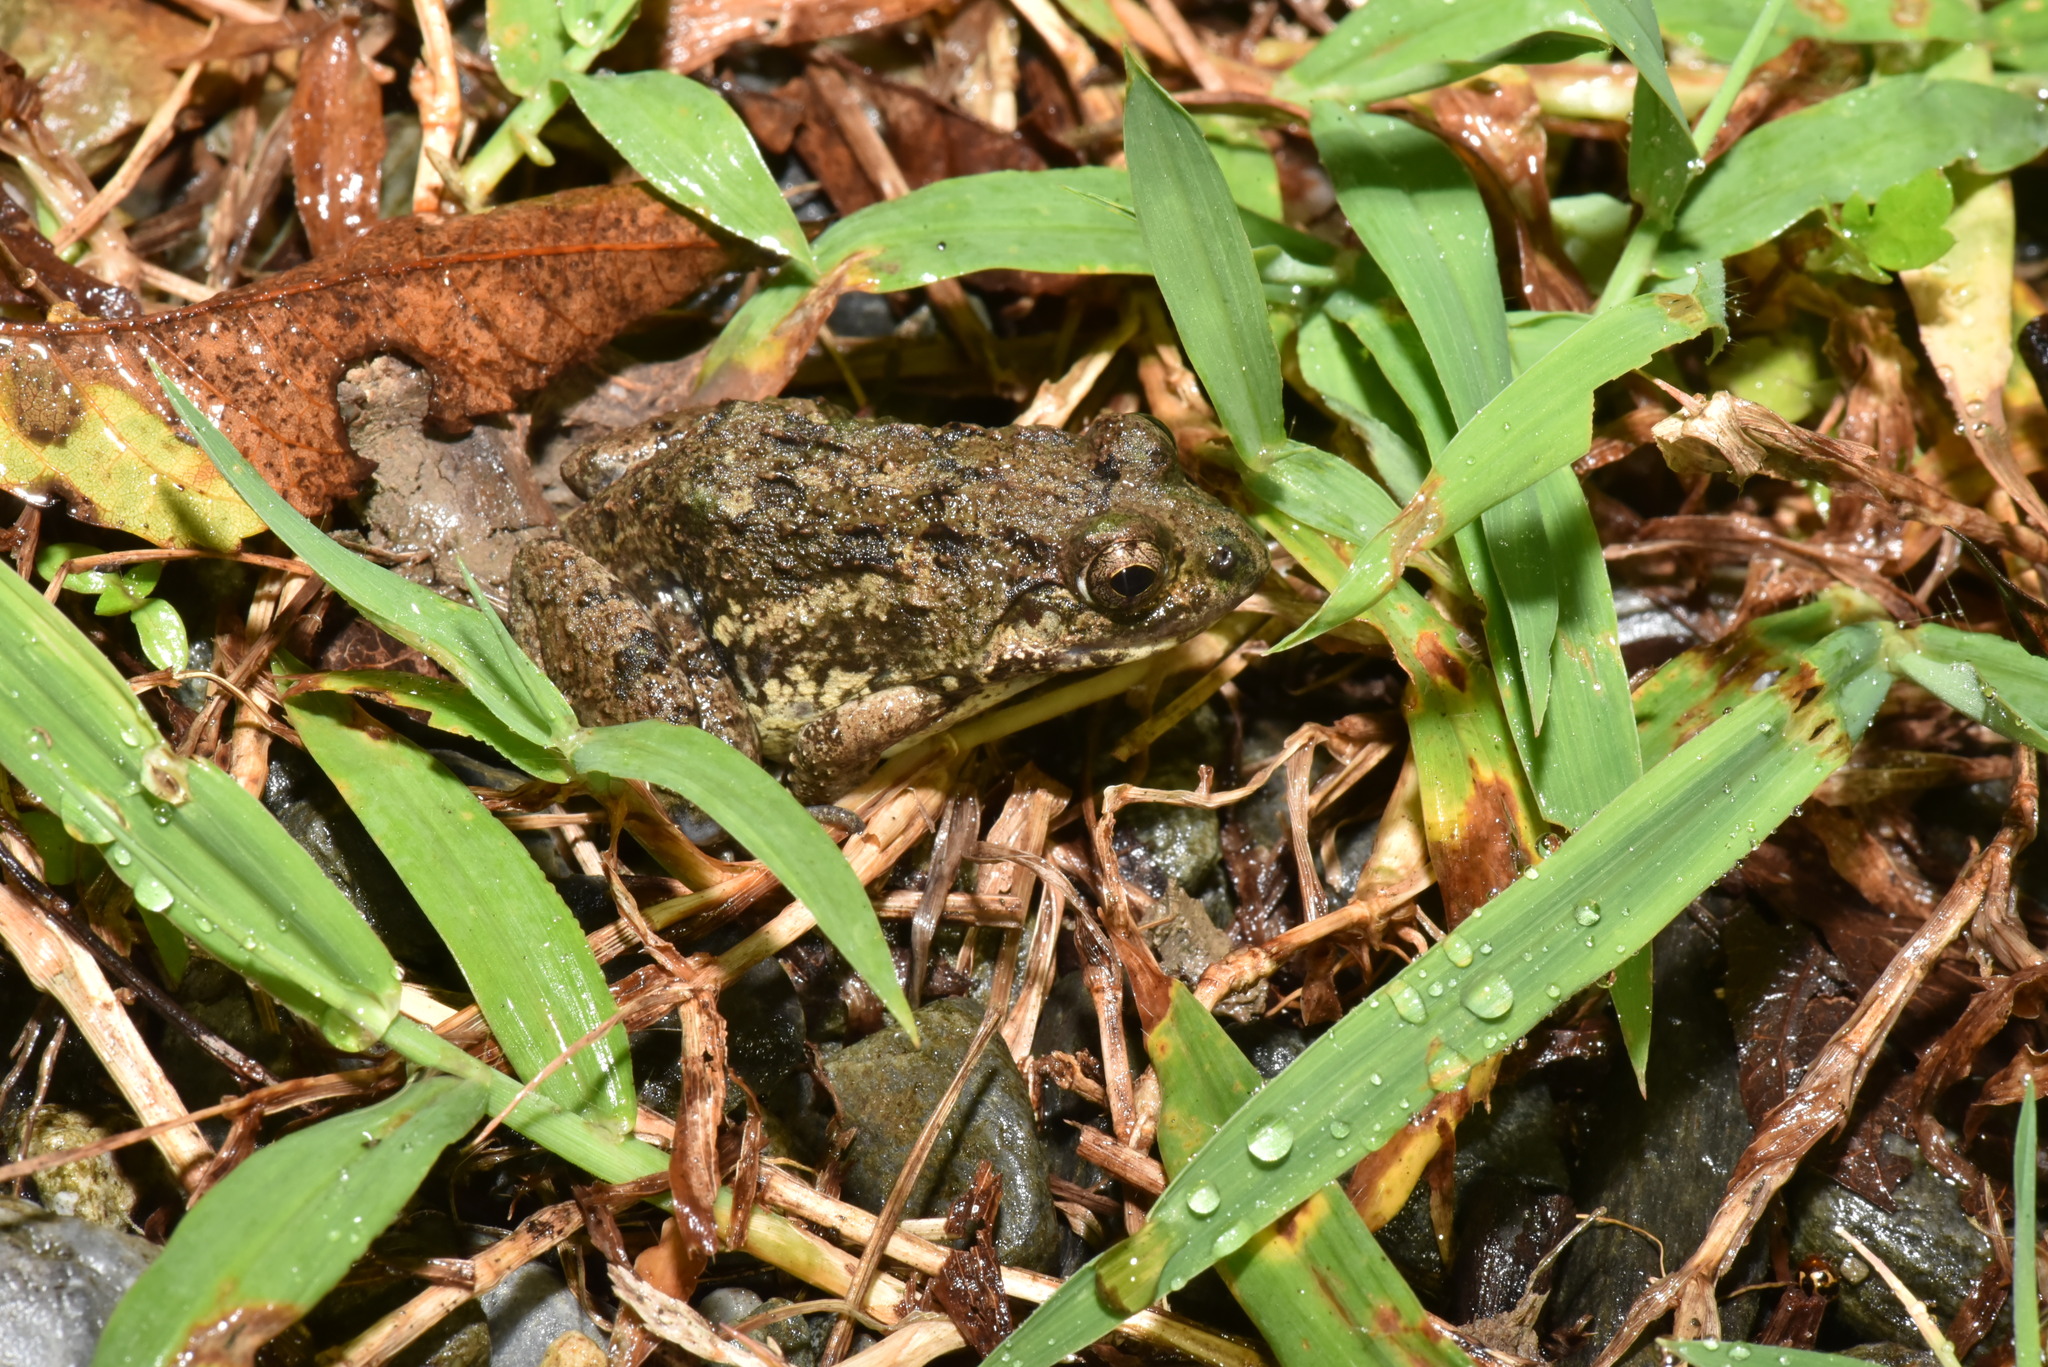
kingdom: Animalia
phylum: Chordata
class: Amphibia
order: Anura
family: Dicroglossidae
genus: Fejervarya
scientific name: Fejervarya limnocharis
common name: Asian grass frog/common pond frog/field frog/grass frog/indian rice frog
